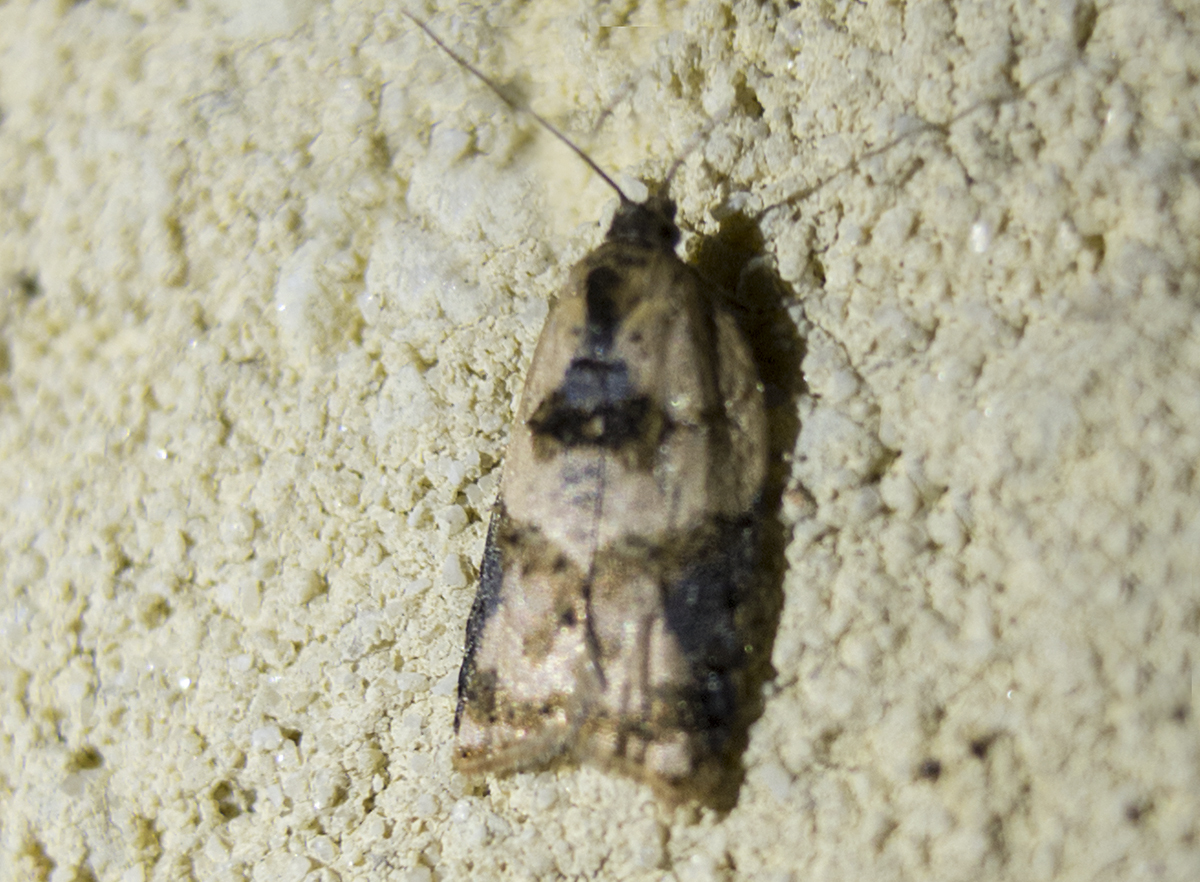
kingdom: Animalia
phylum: Arthropoda
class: Insecta
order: Lepidoptera
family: Tortricidae
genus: Acleris
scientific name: Acleris variegana
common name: Garden rose tortrix
